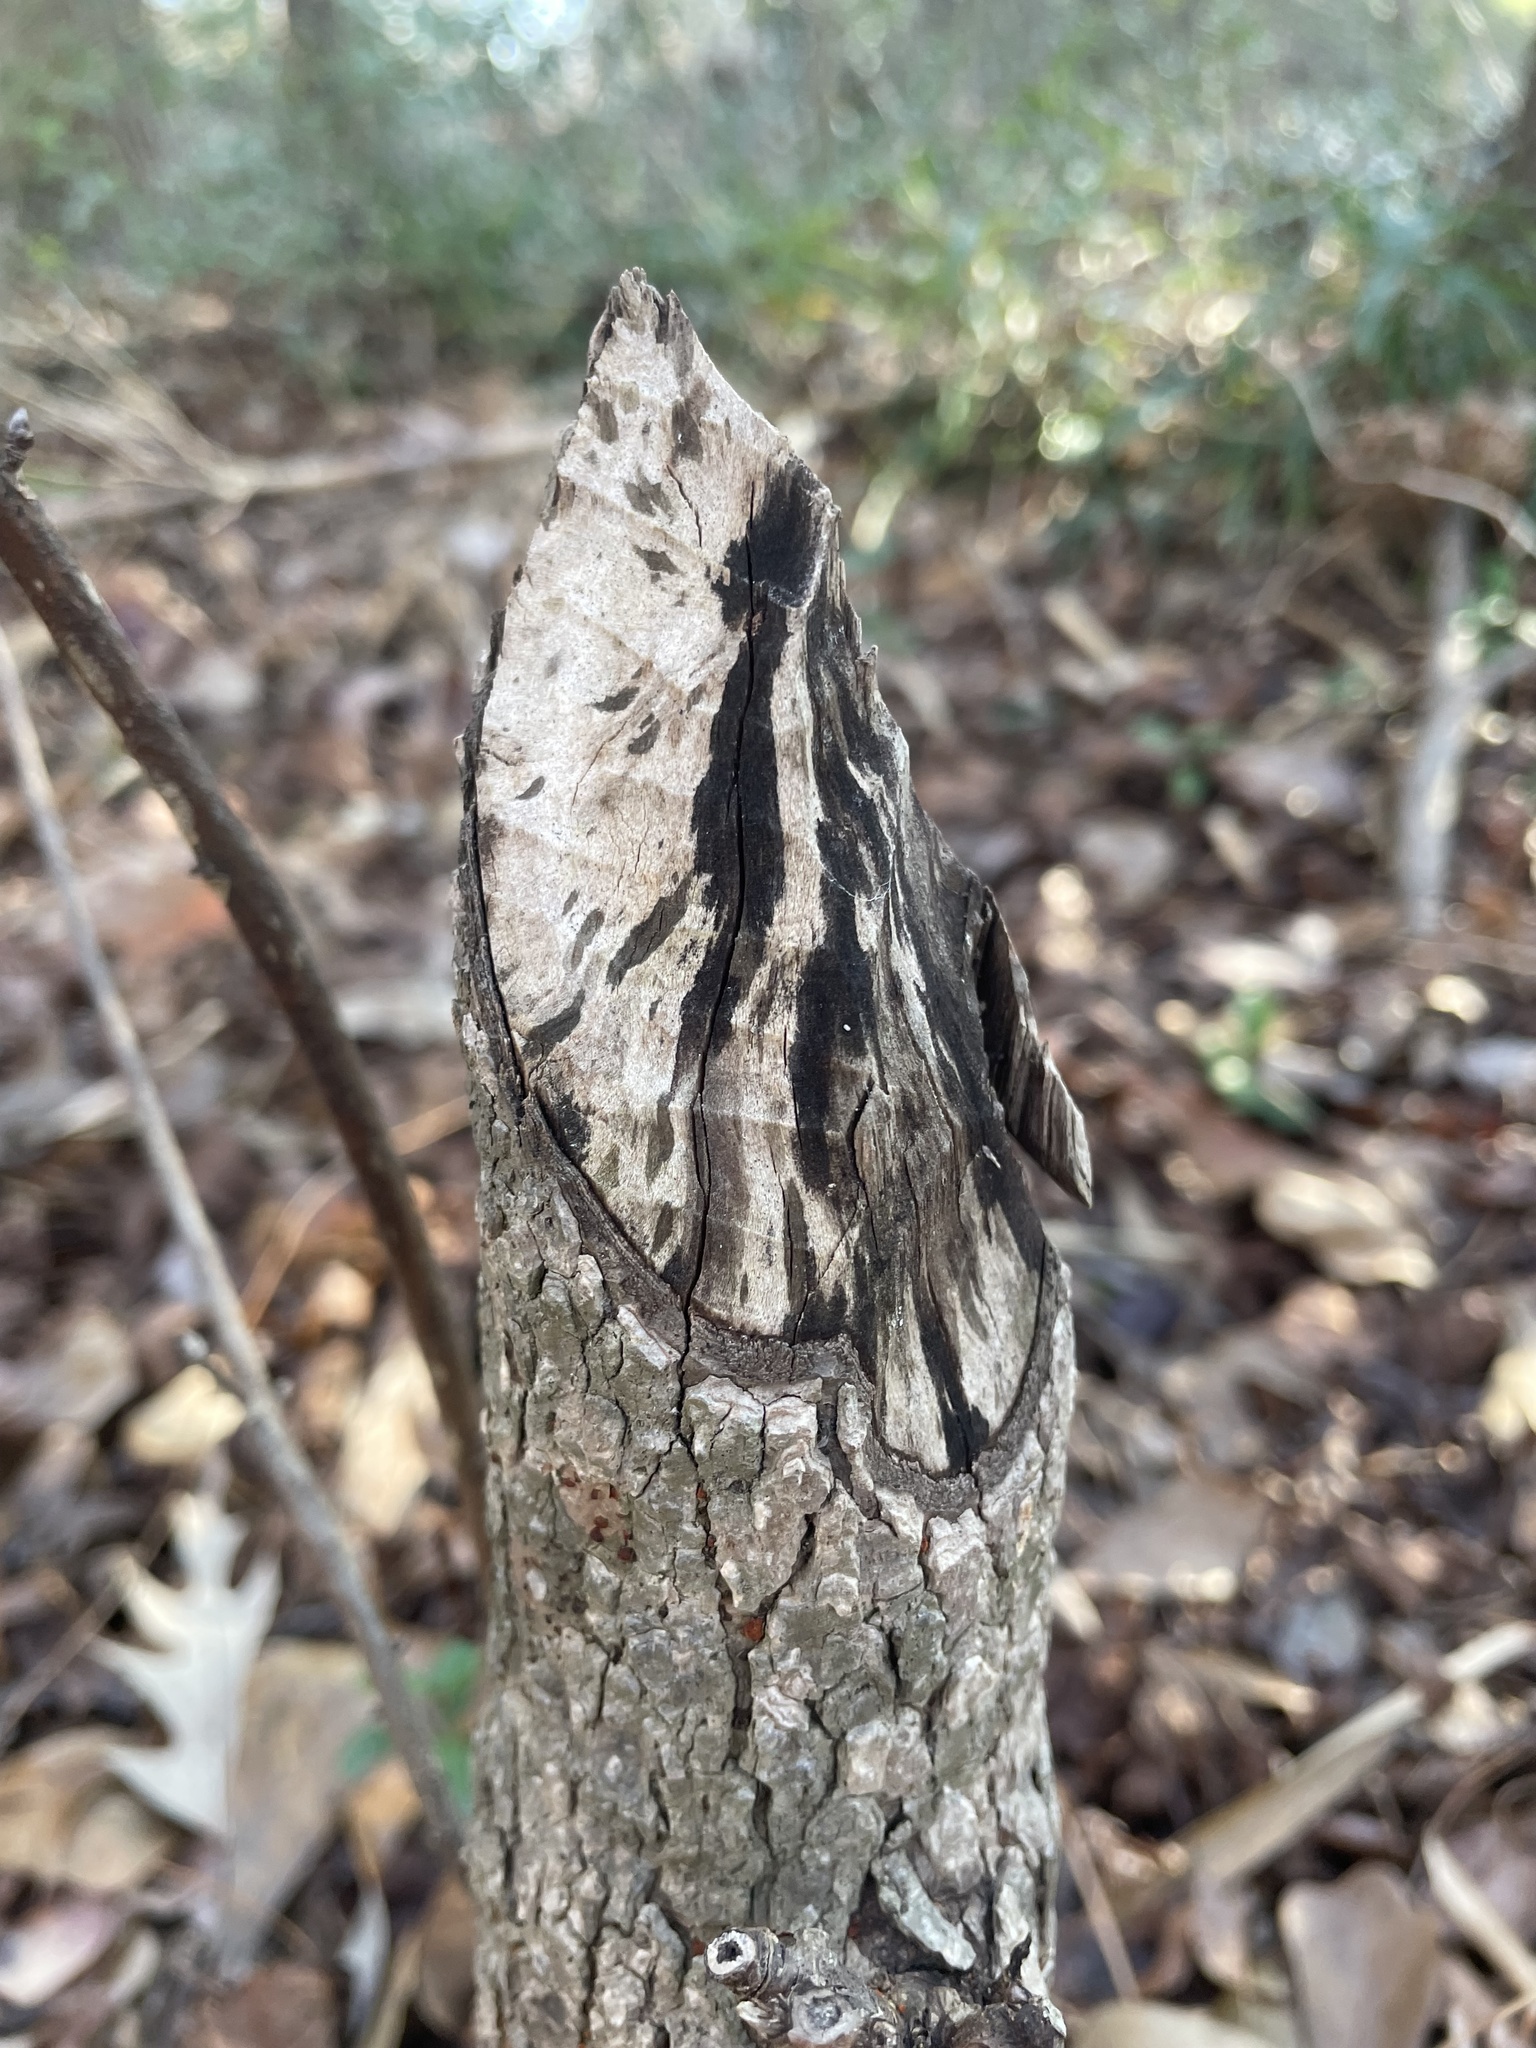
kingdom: Animalia
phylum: Chordata
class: Mammalia
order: Rodentia
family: Castoridae
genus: Castor
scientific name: Castor canadensis
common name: American beaver
